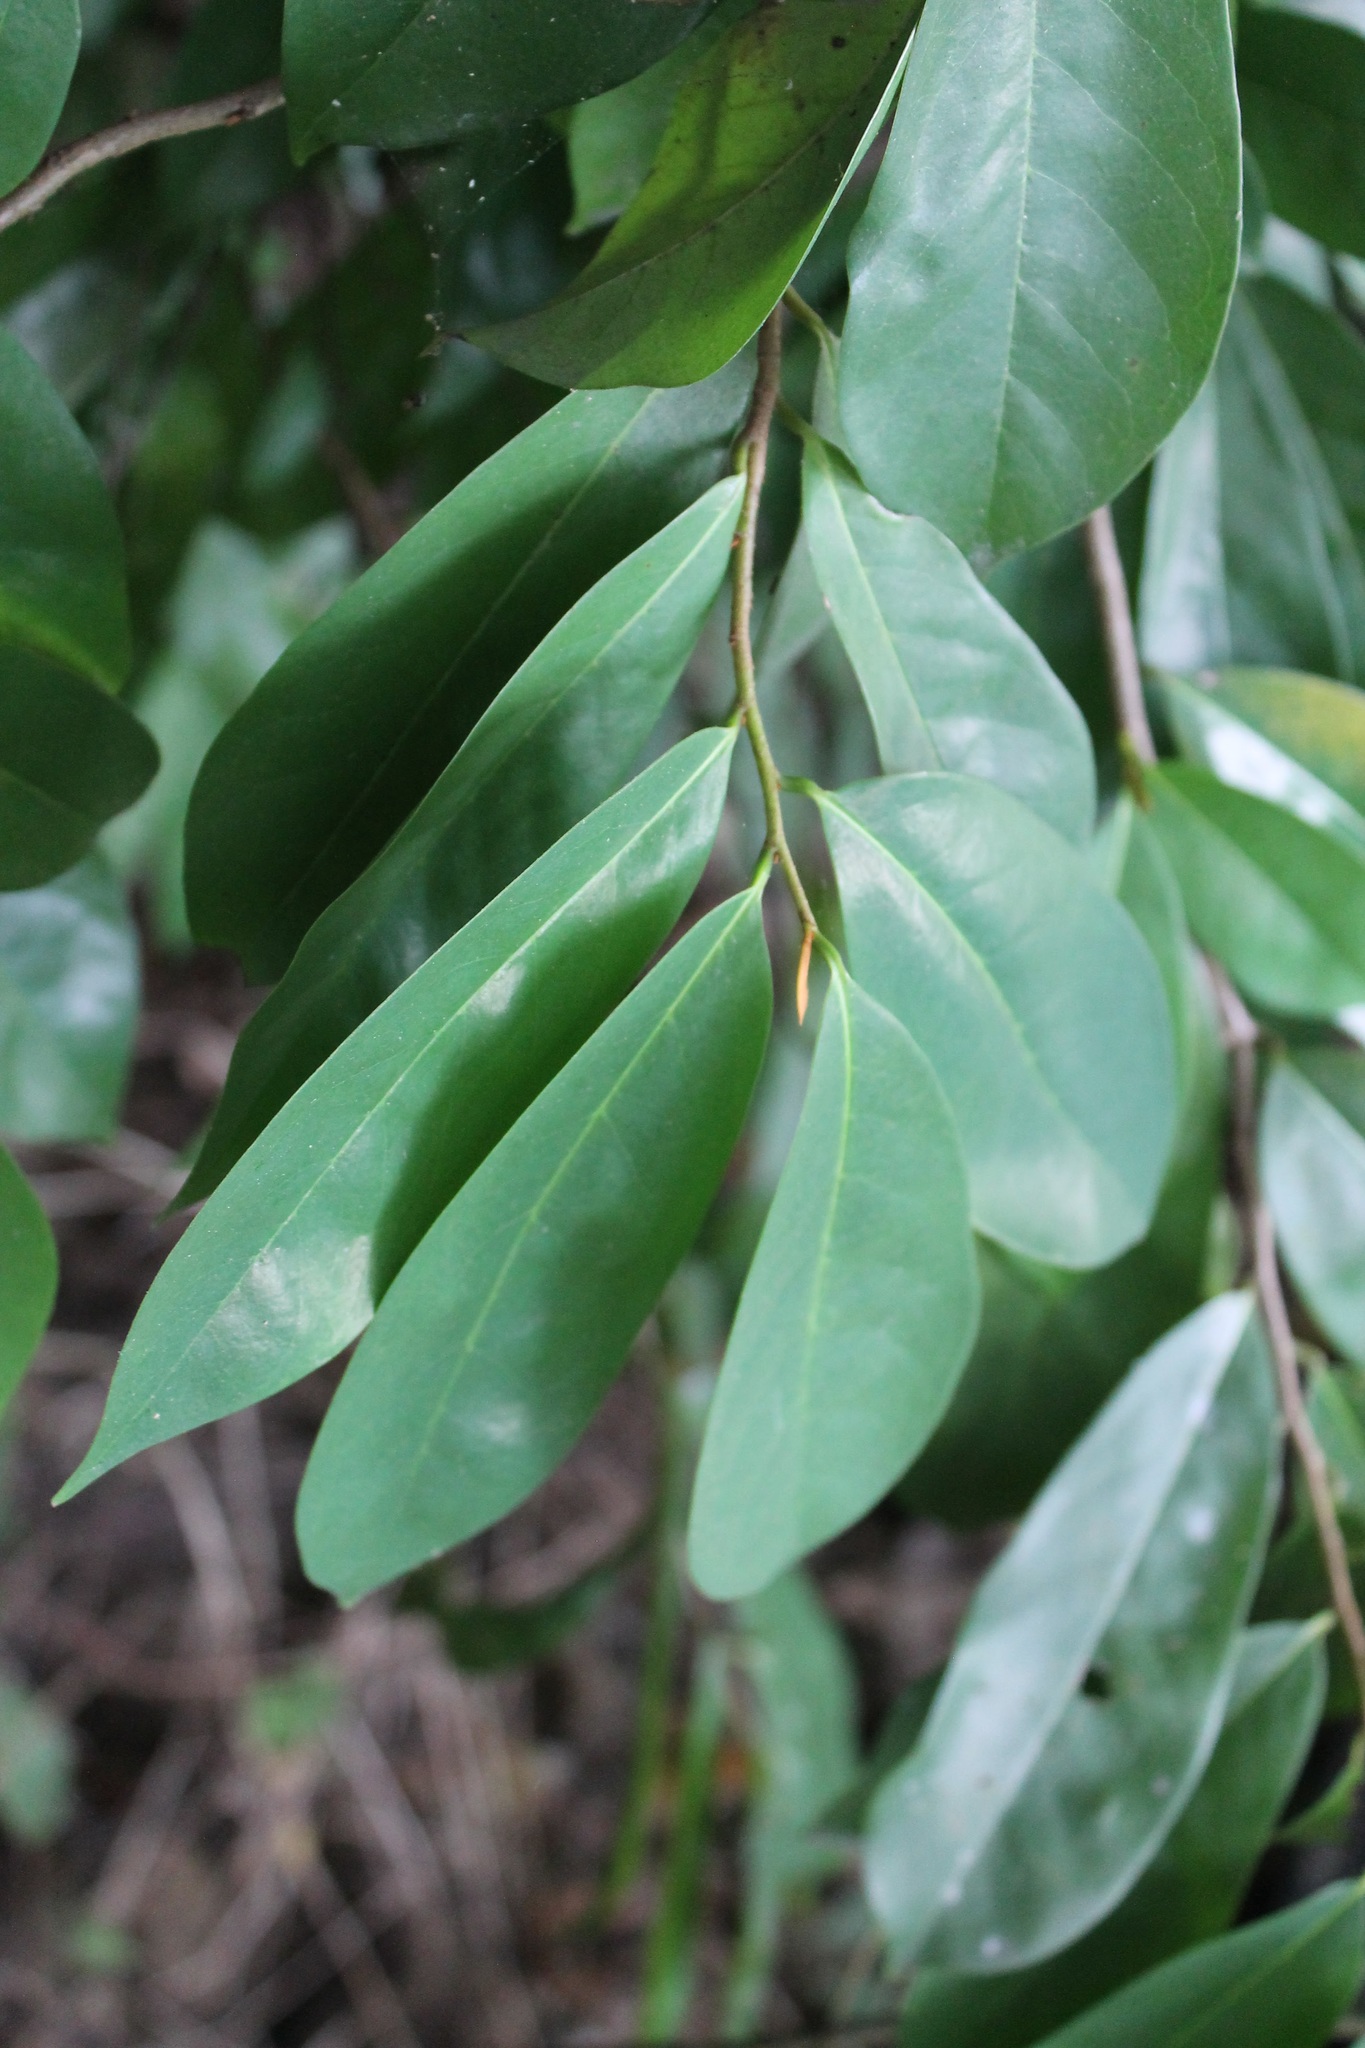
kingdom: Plantae
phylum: Tracheophyta
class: Magnoliopsida
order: Magnoliales
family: Annonaceae
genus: Annona
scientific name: Annona muricata
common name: Soursop
